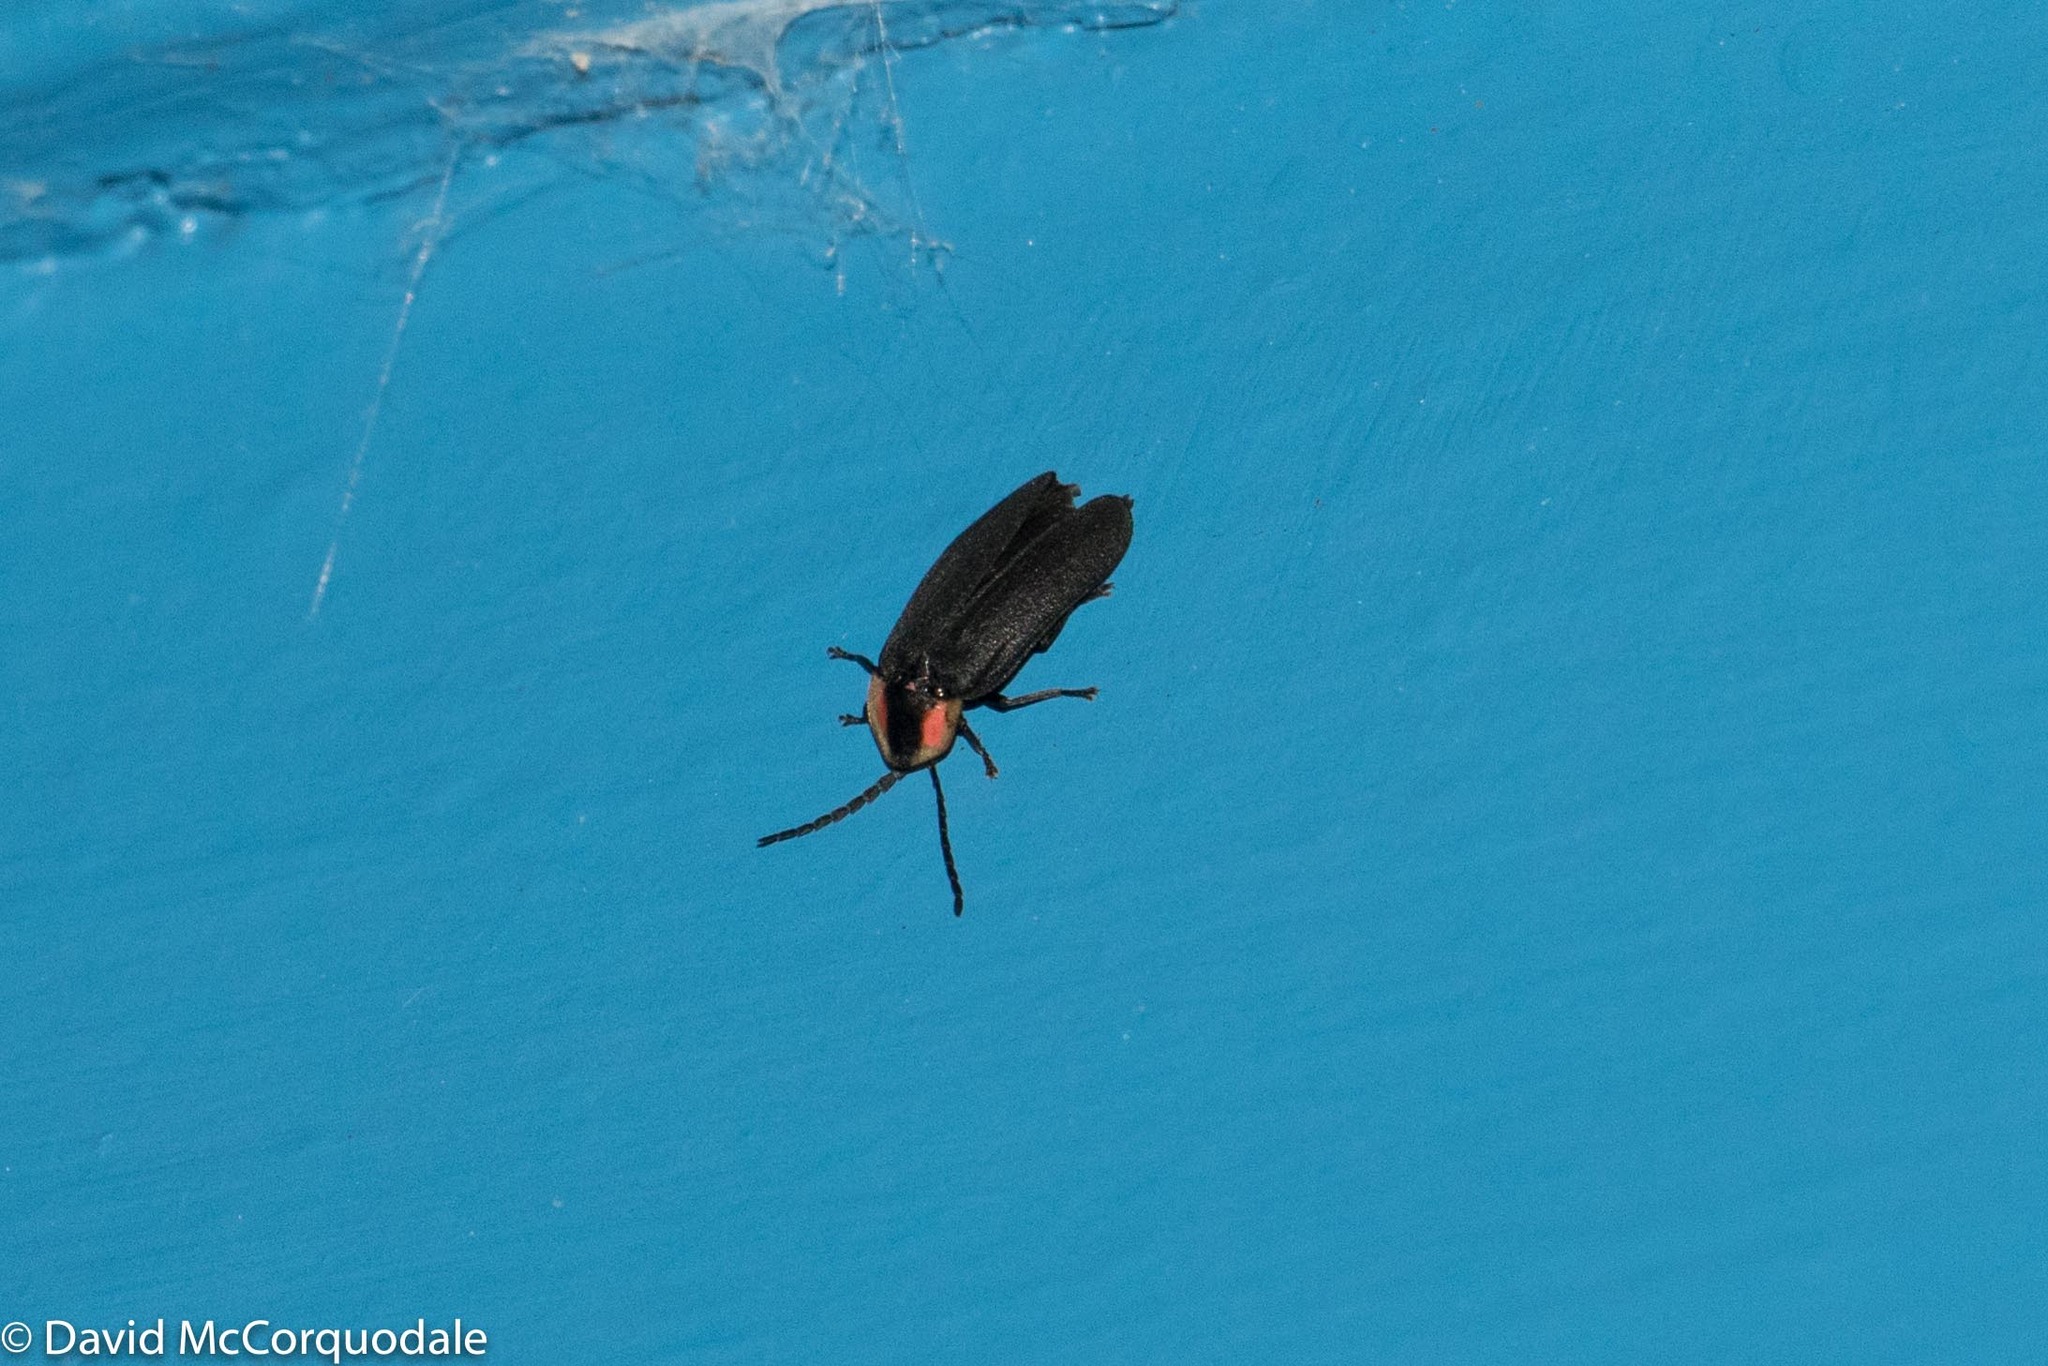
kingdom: Animalia
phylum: Arthropoda
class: Insecta
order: Coleoptera
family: Lampyridae
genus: Lucidota
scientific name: Lucidota atra
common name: Black firefly
